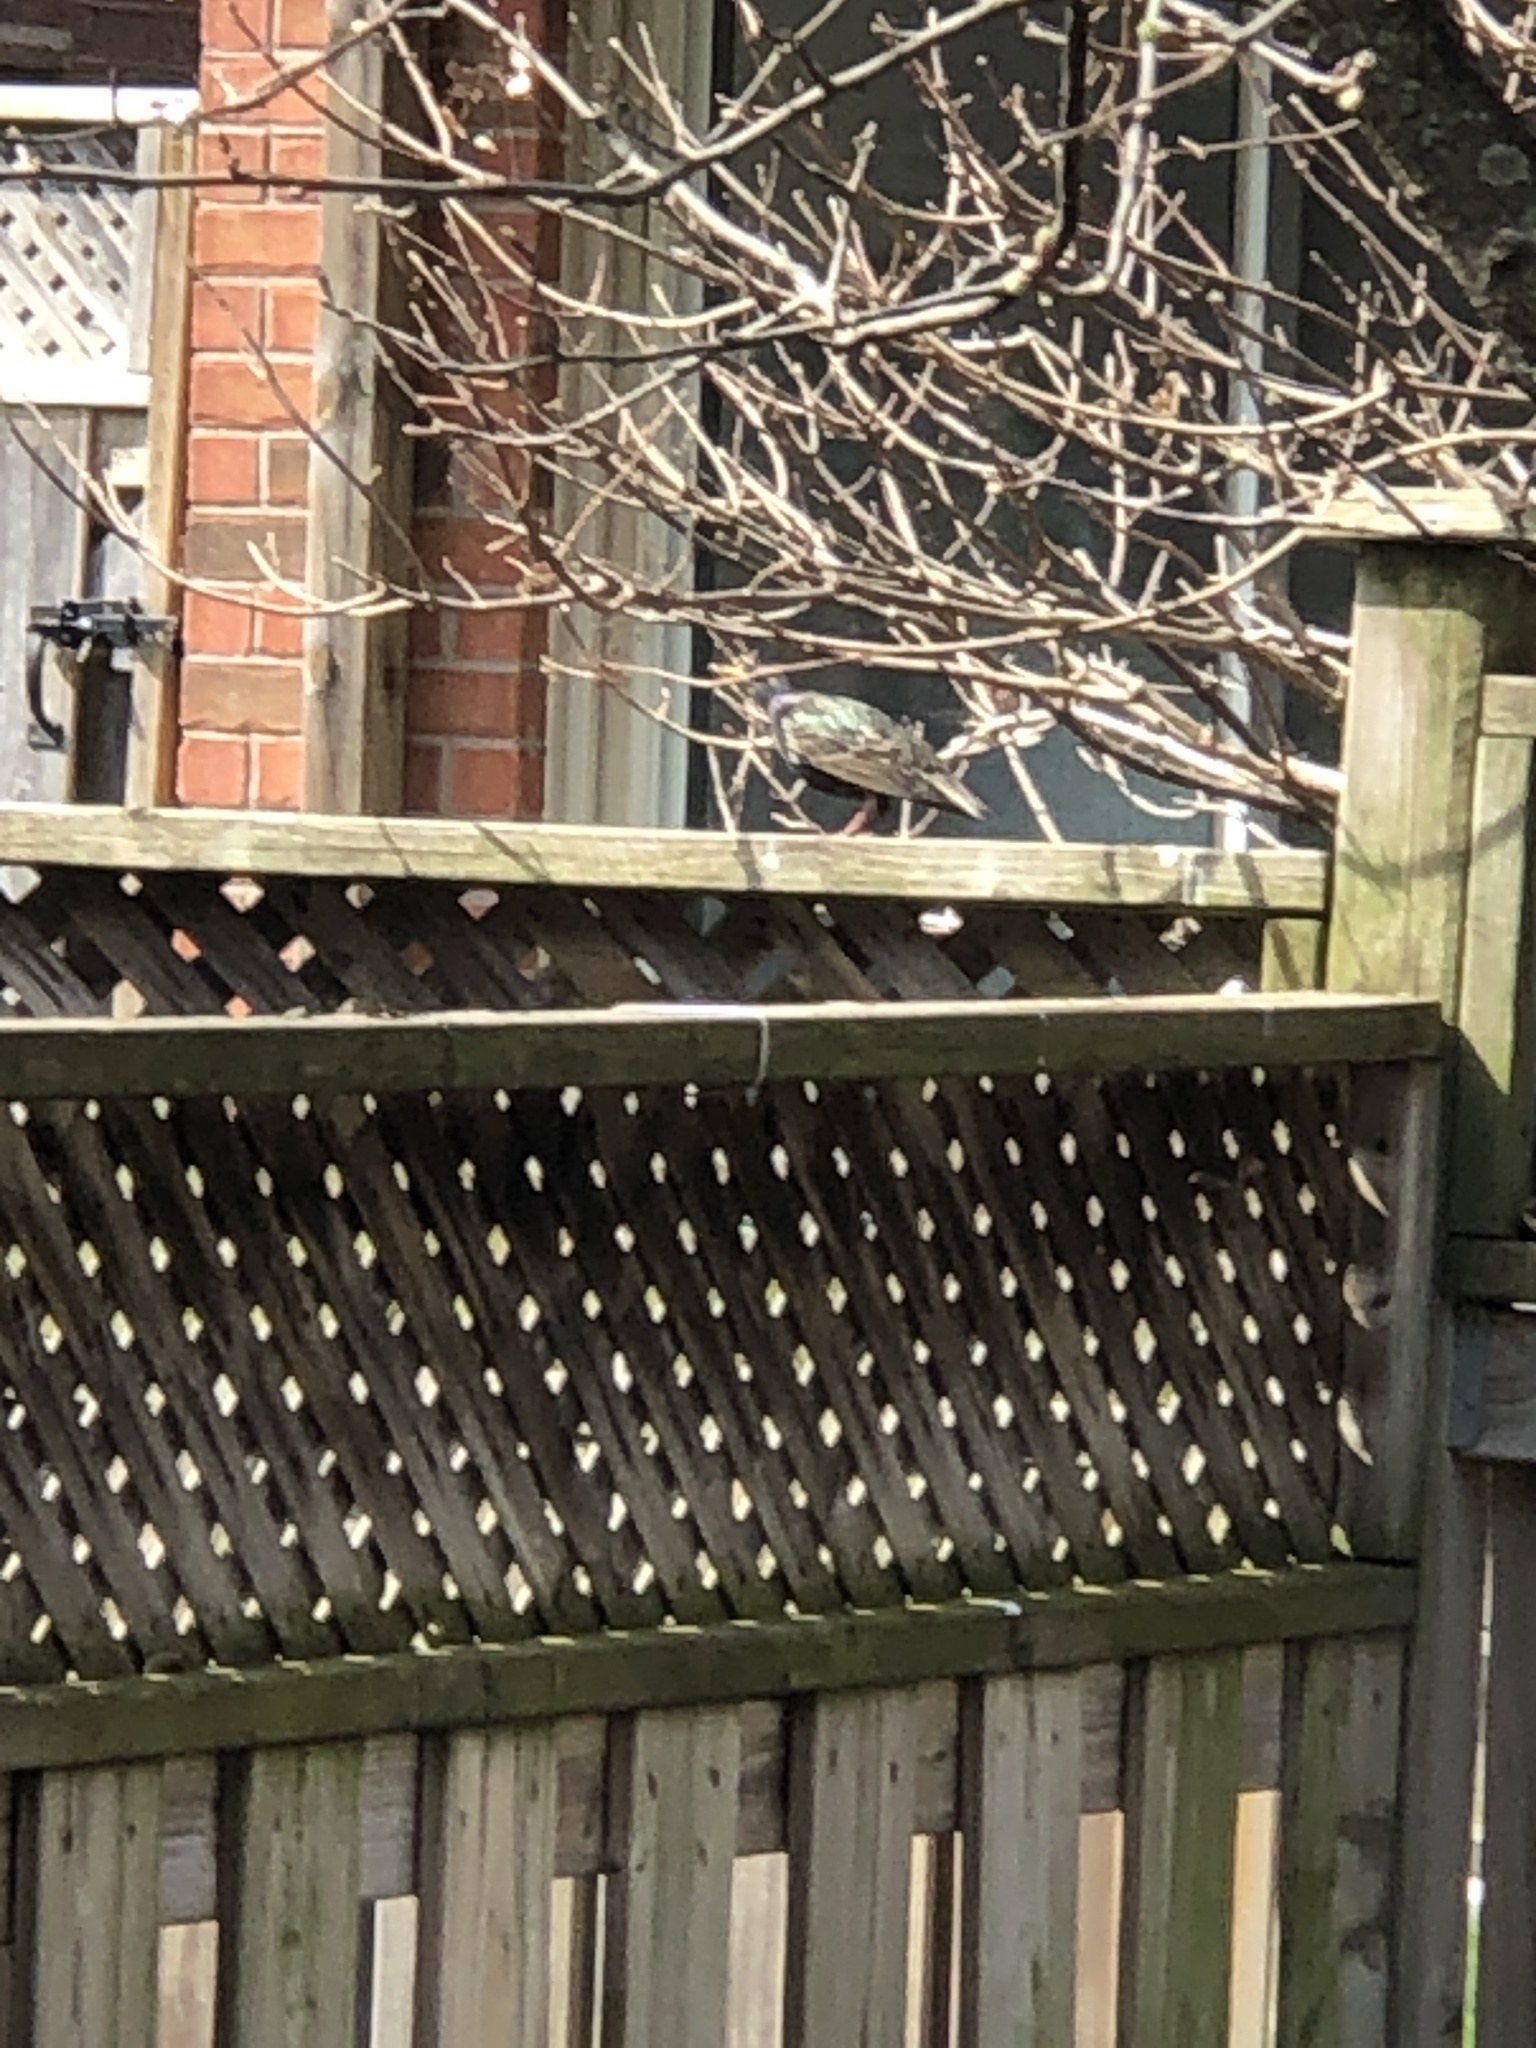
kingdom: Animalia
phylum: Chordata
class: Aves
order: Passeriformes
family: Sturnidae
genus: Sturnus
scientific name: Sturnus vulgaris
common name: Common starling
